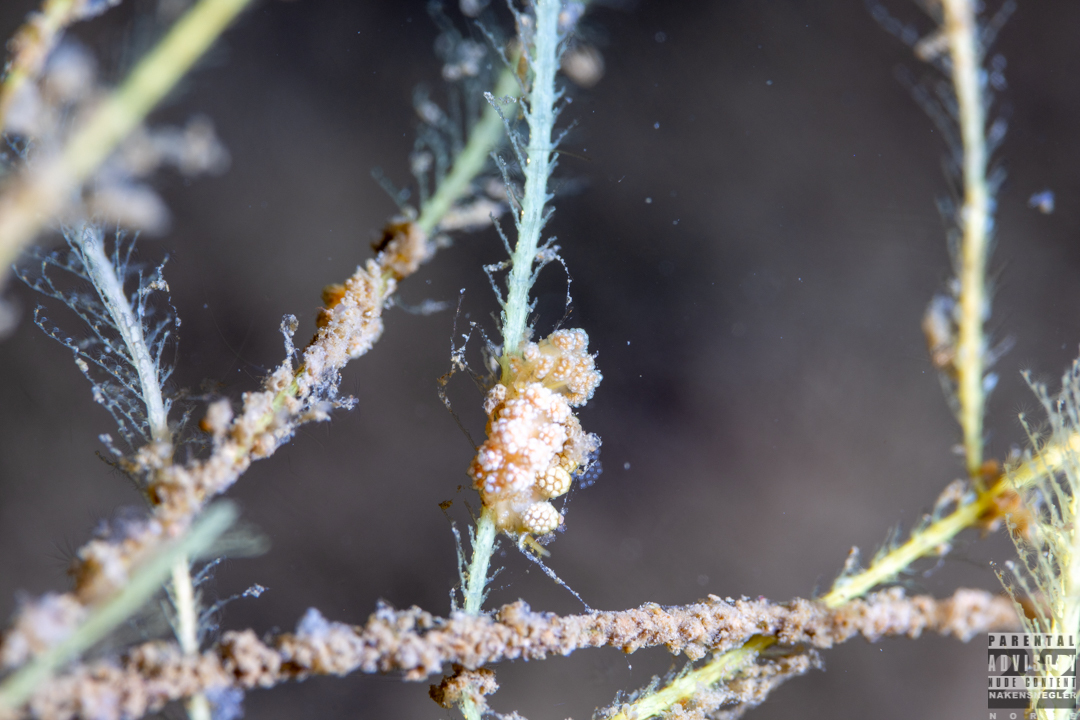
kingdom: Animalia
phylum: Mollusca
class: Gastropoda
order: Nudibranchia
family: Dotidae
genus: Doto
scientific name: Doto fragilis
